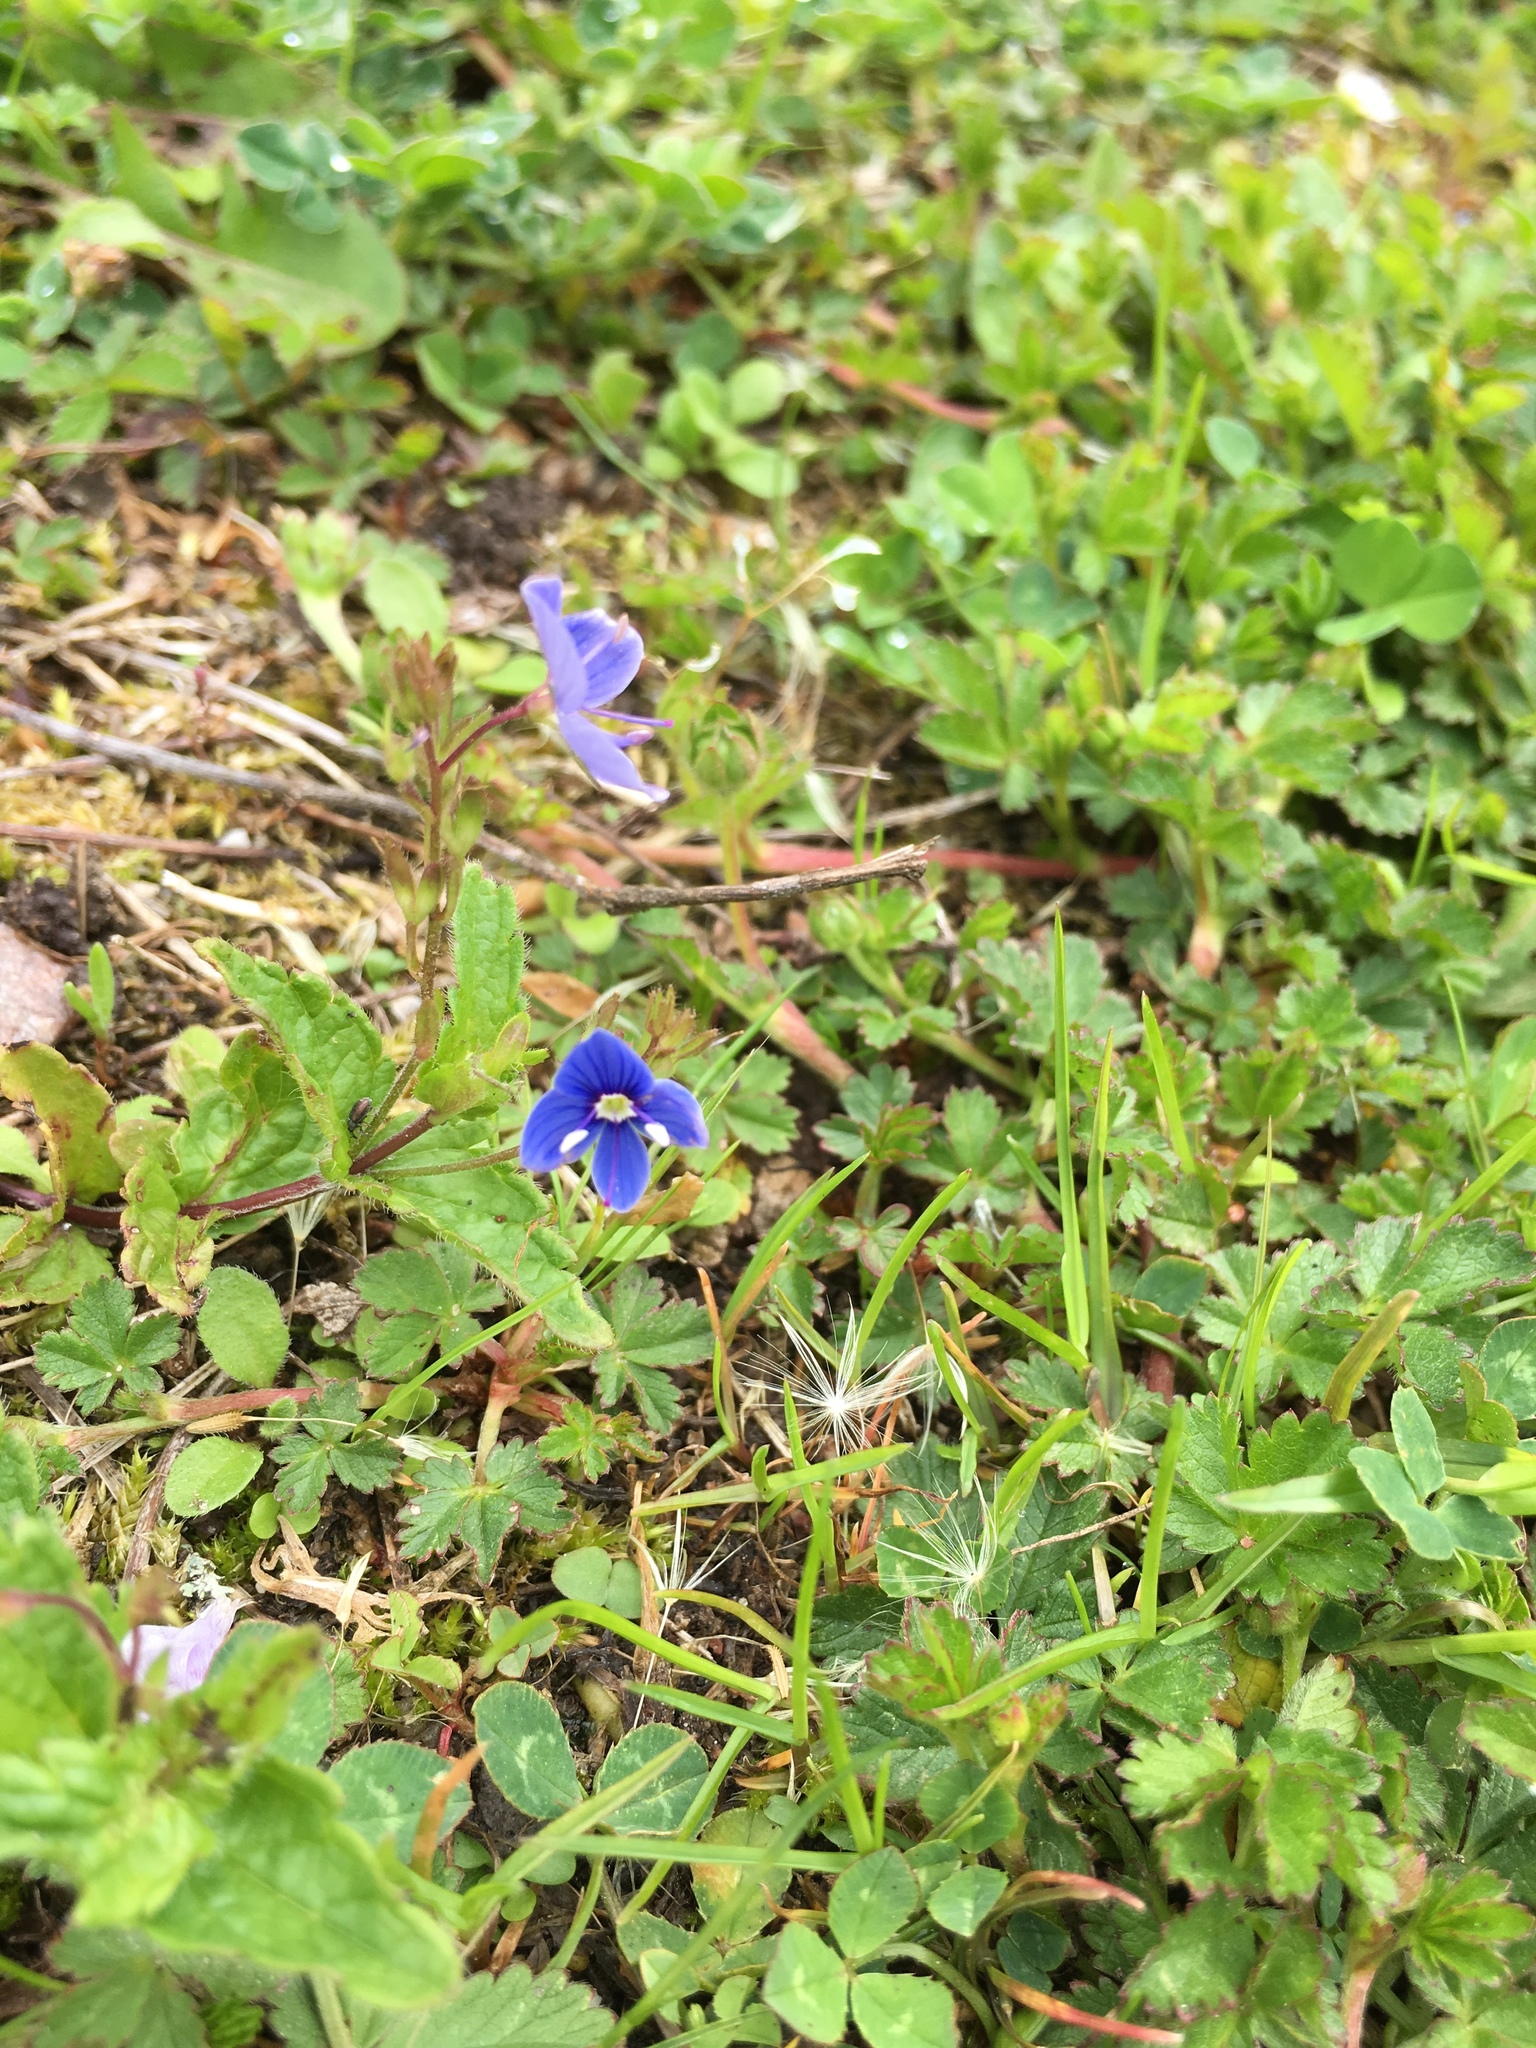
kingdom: Plantae
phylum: Tracheophyta
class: Magnoliopsida
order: Lamiales
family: Plantaginaceae
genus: Veronica
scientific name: Veronica chamaedrys
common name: Germander speedwell
